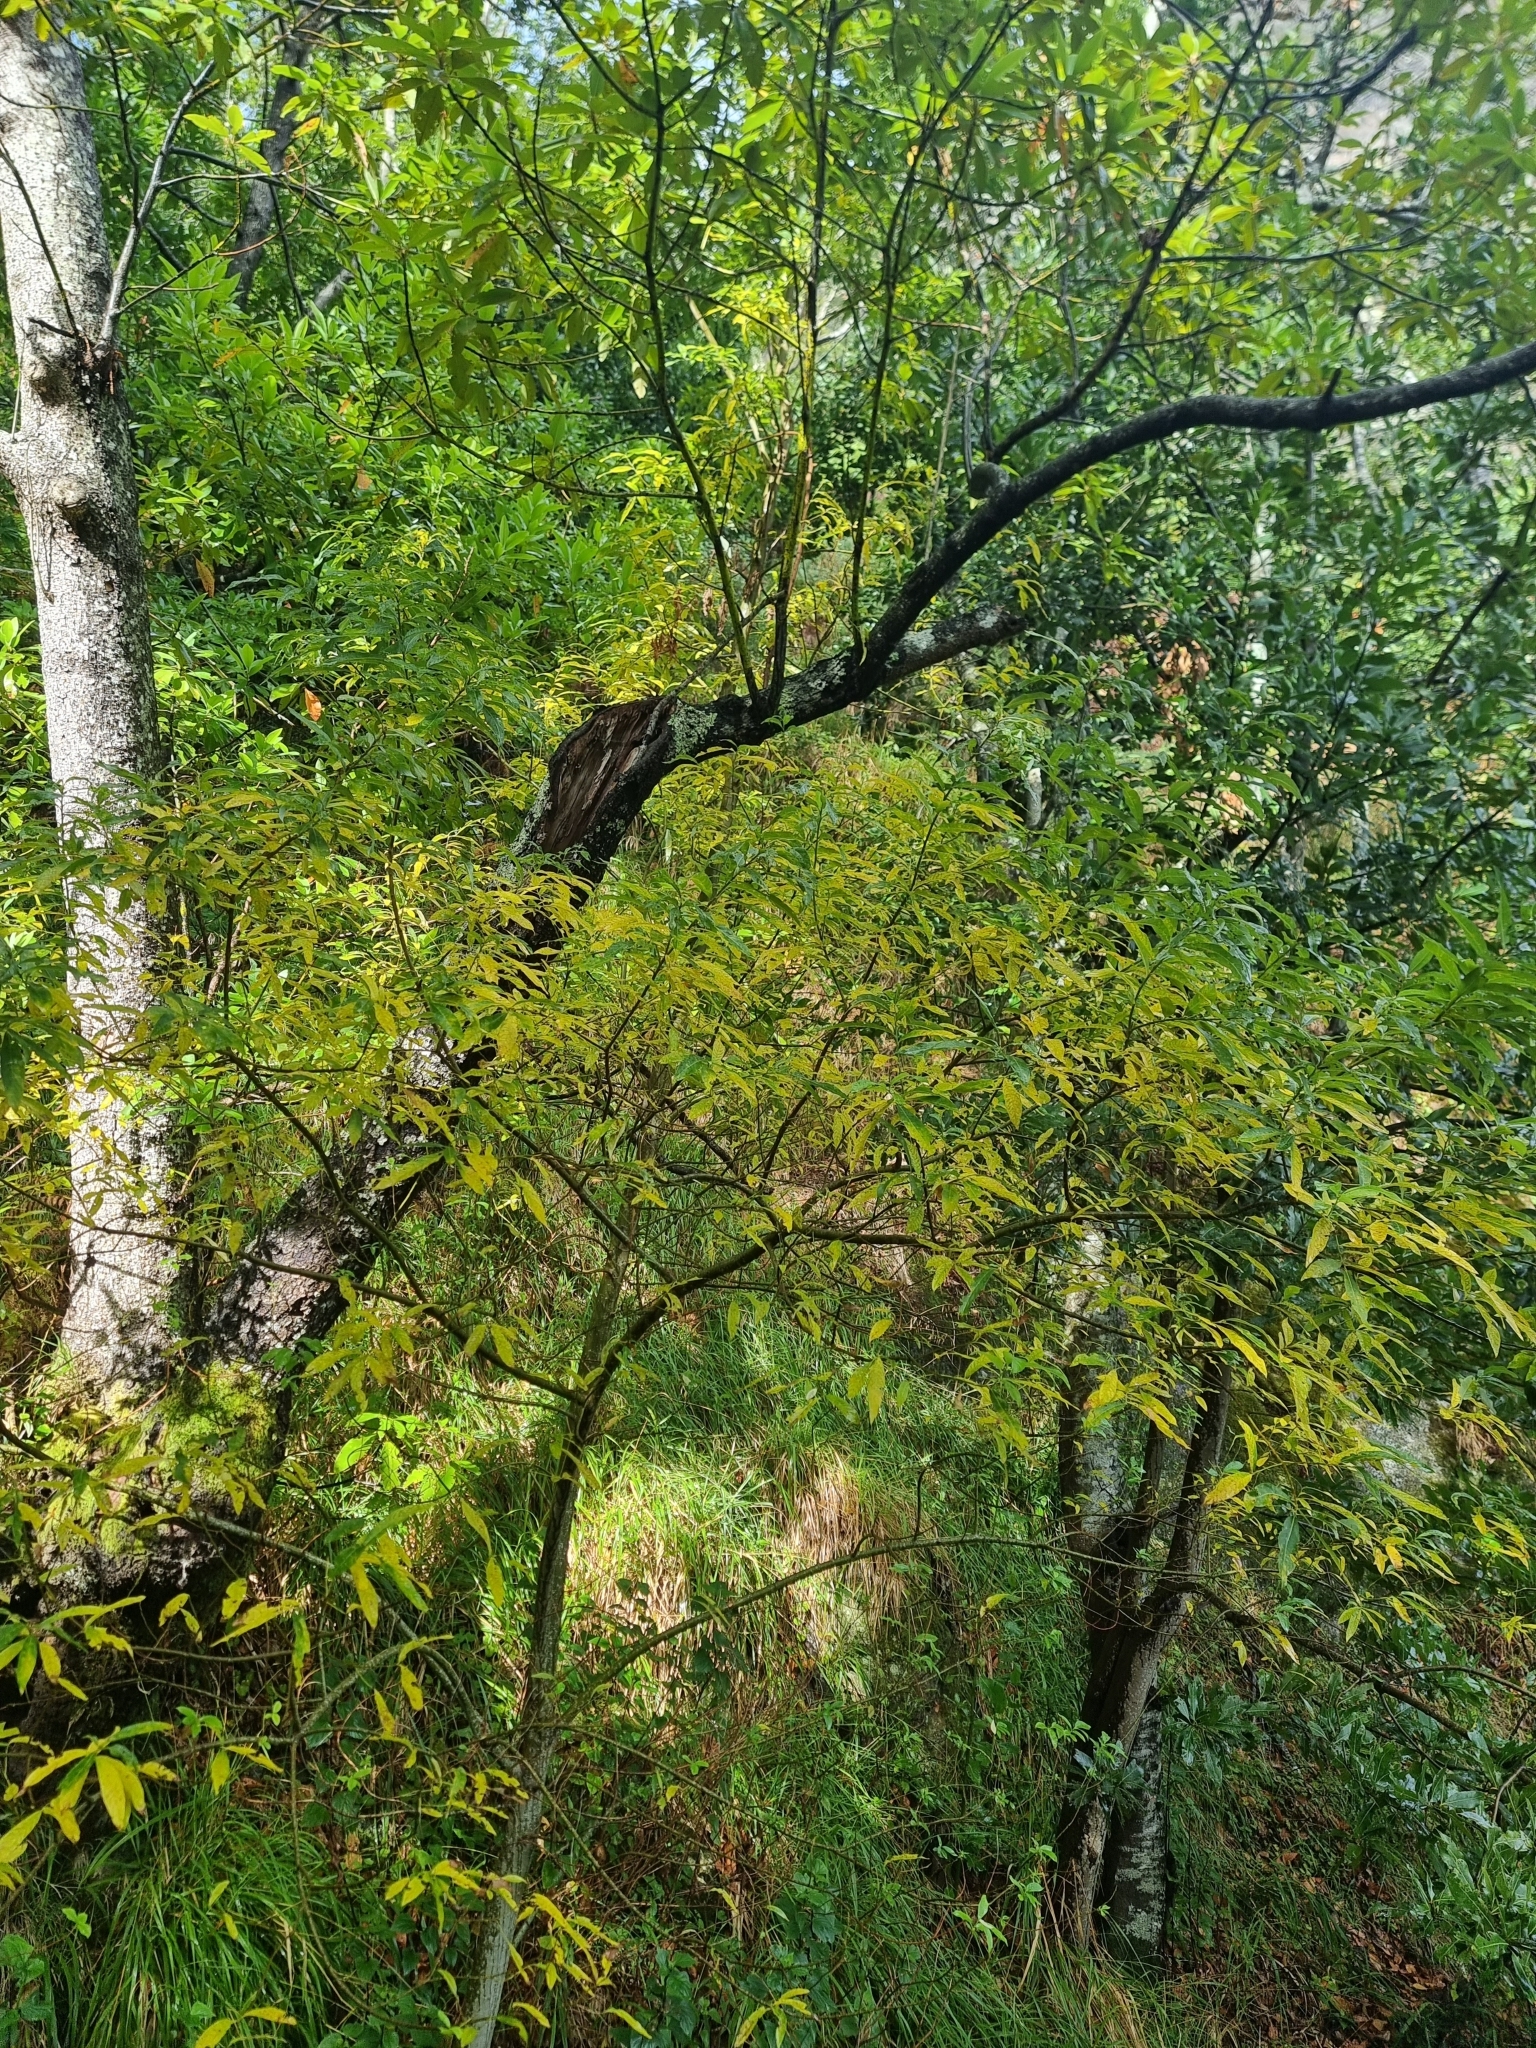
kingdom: Plantae
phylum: Tracheophyta
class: Magnoliopsida
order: Malpighiales
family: Salicaceae
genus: Salix
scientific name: Salix canariensis
